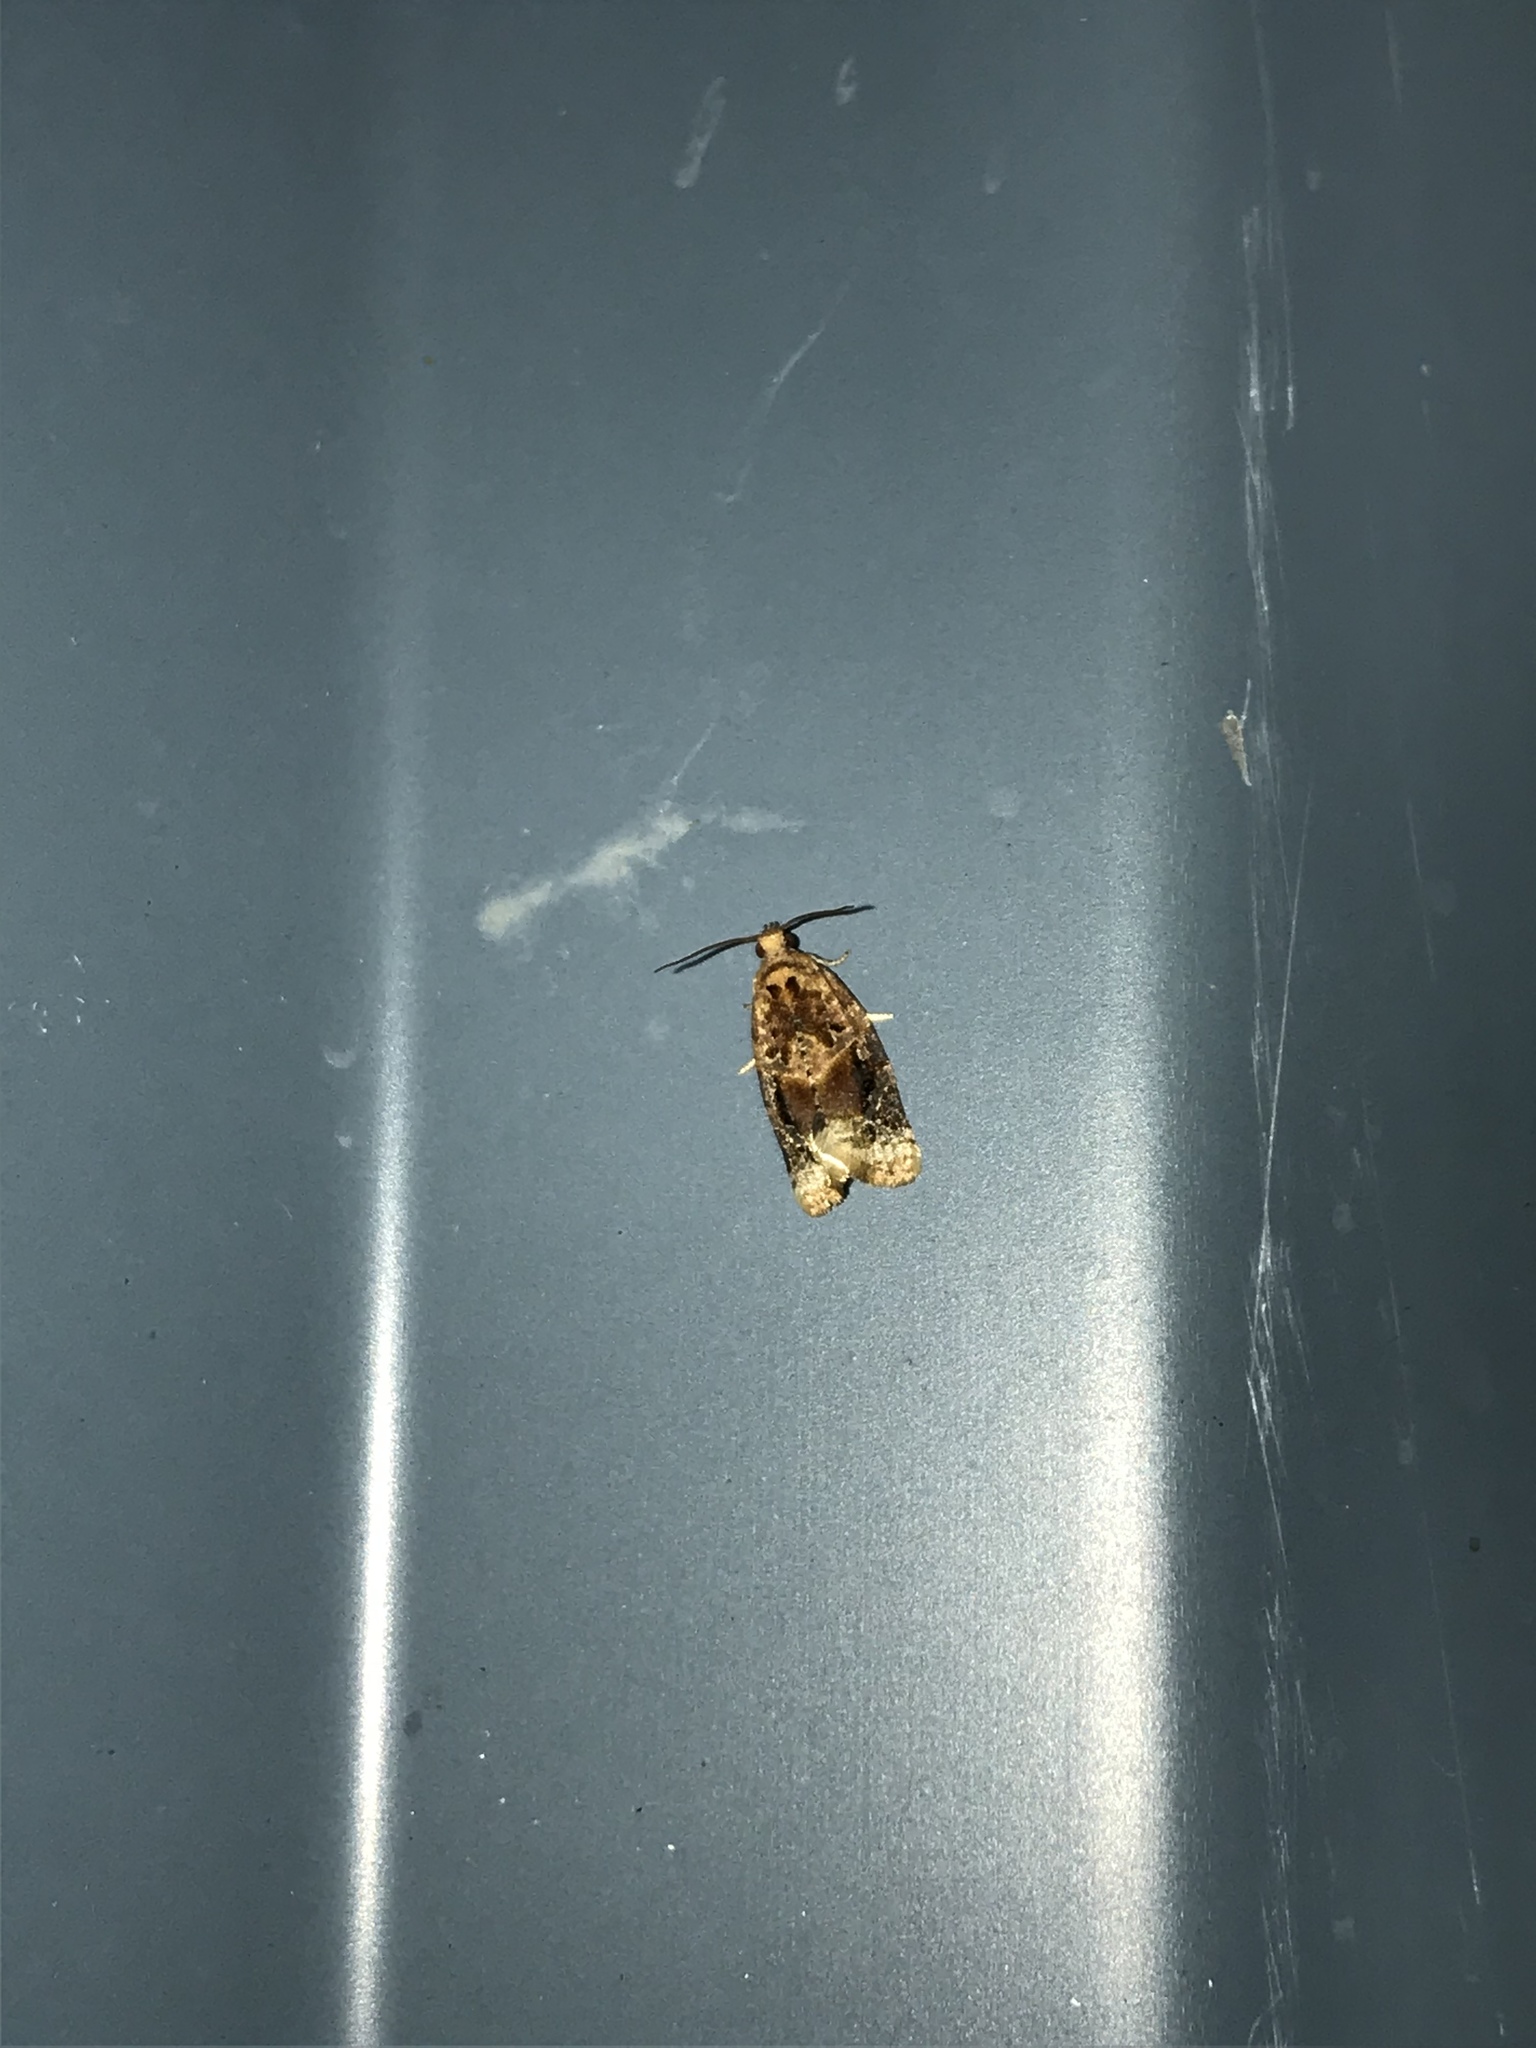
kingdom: Animalia
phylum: Arthropoda
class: Insecta
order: Lepidoptera
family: Tortricidae
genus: Argyrotaenia
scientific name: Argyrotaenia velutinana
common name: Red-banded leafroller moth
